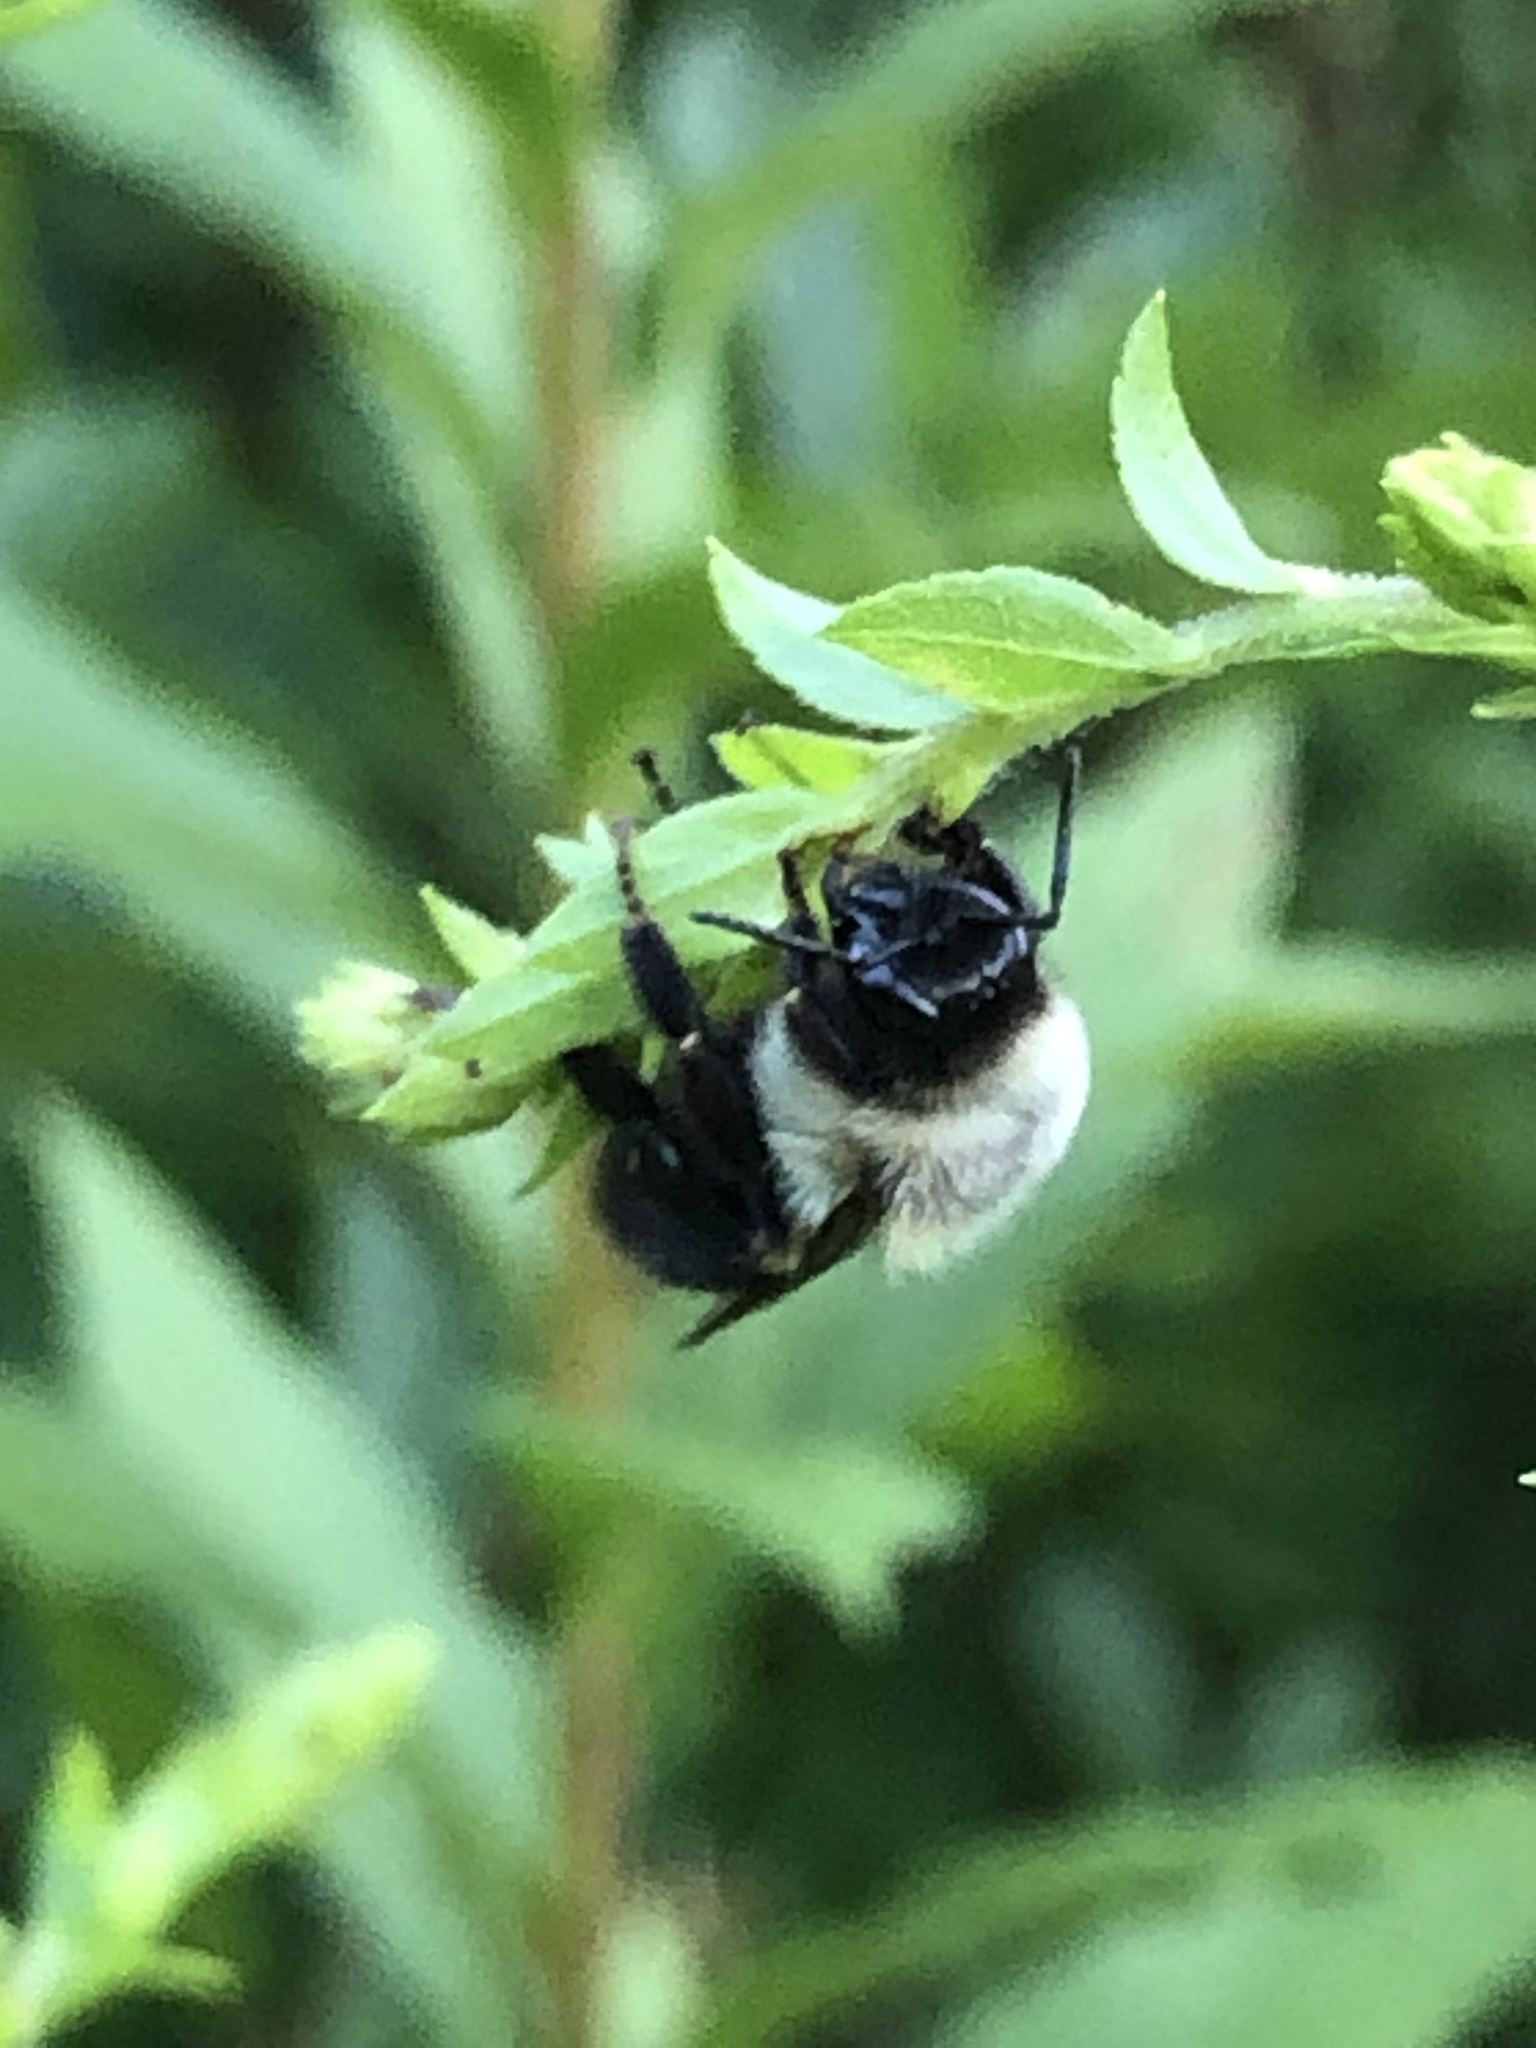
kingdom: Animalia
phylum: Arthropoda
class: Insecta
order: Hymenoptera
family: Apidae
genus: Bombus
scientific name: Bombus impatiens
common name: Common eastern bumble bee
